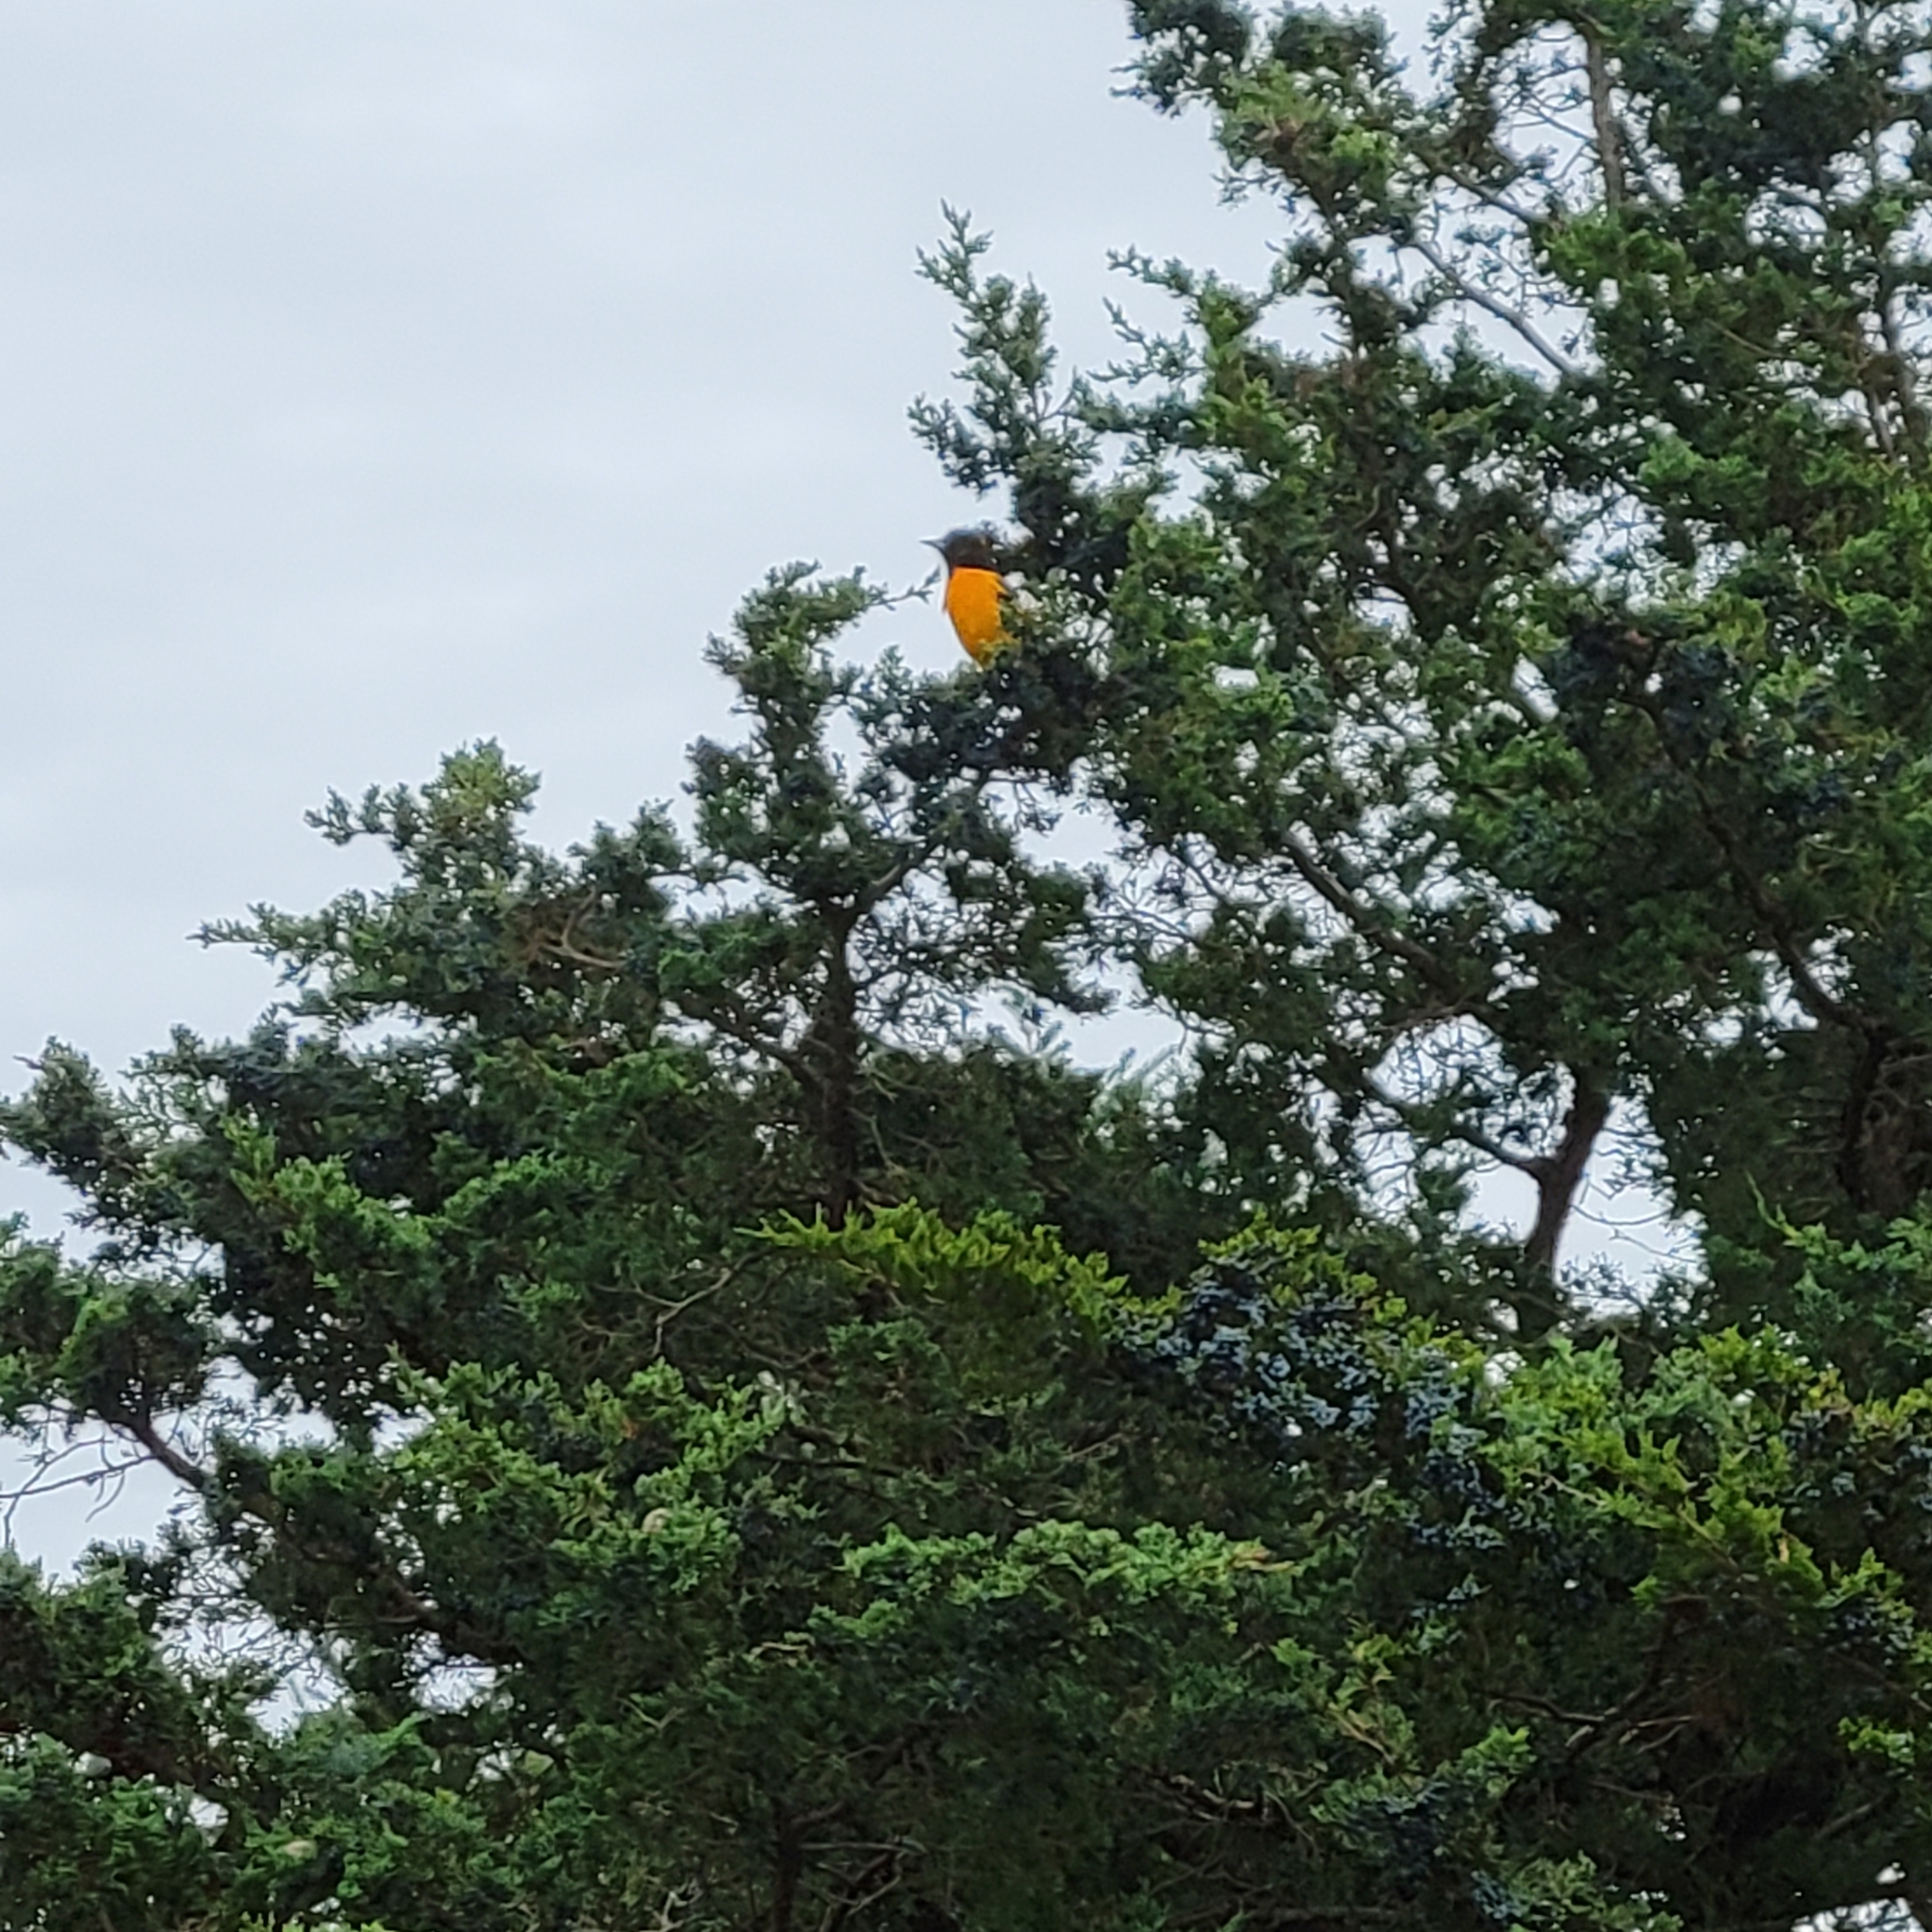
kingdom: Animalia
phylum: Chordata
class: Aves
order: Passeriformes
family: Icteridae
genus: Icterus
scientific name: Icterus galbula
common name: Baltimore oriole
